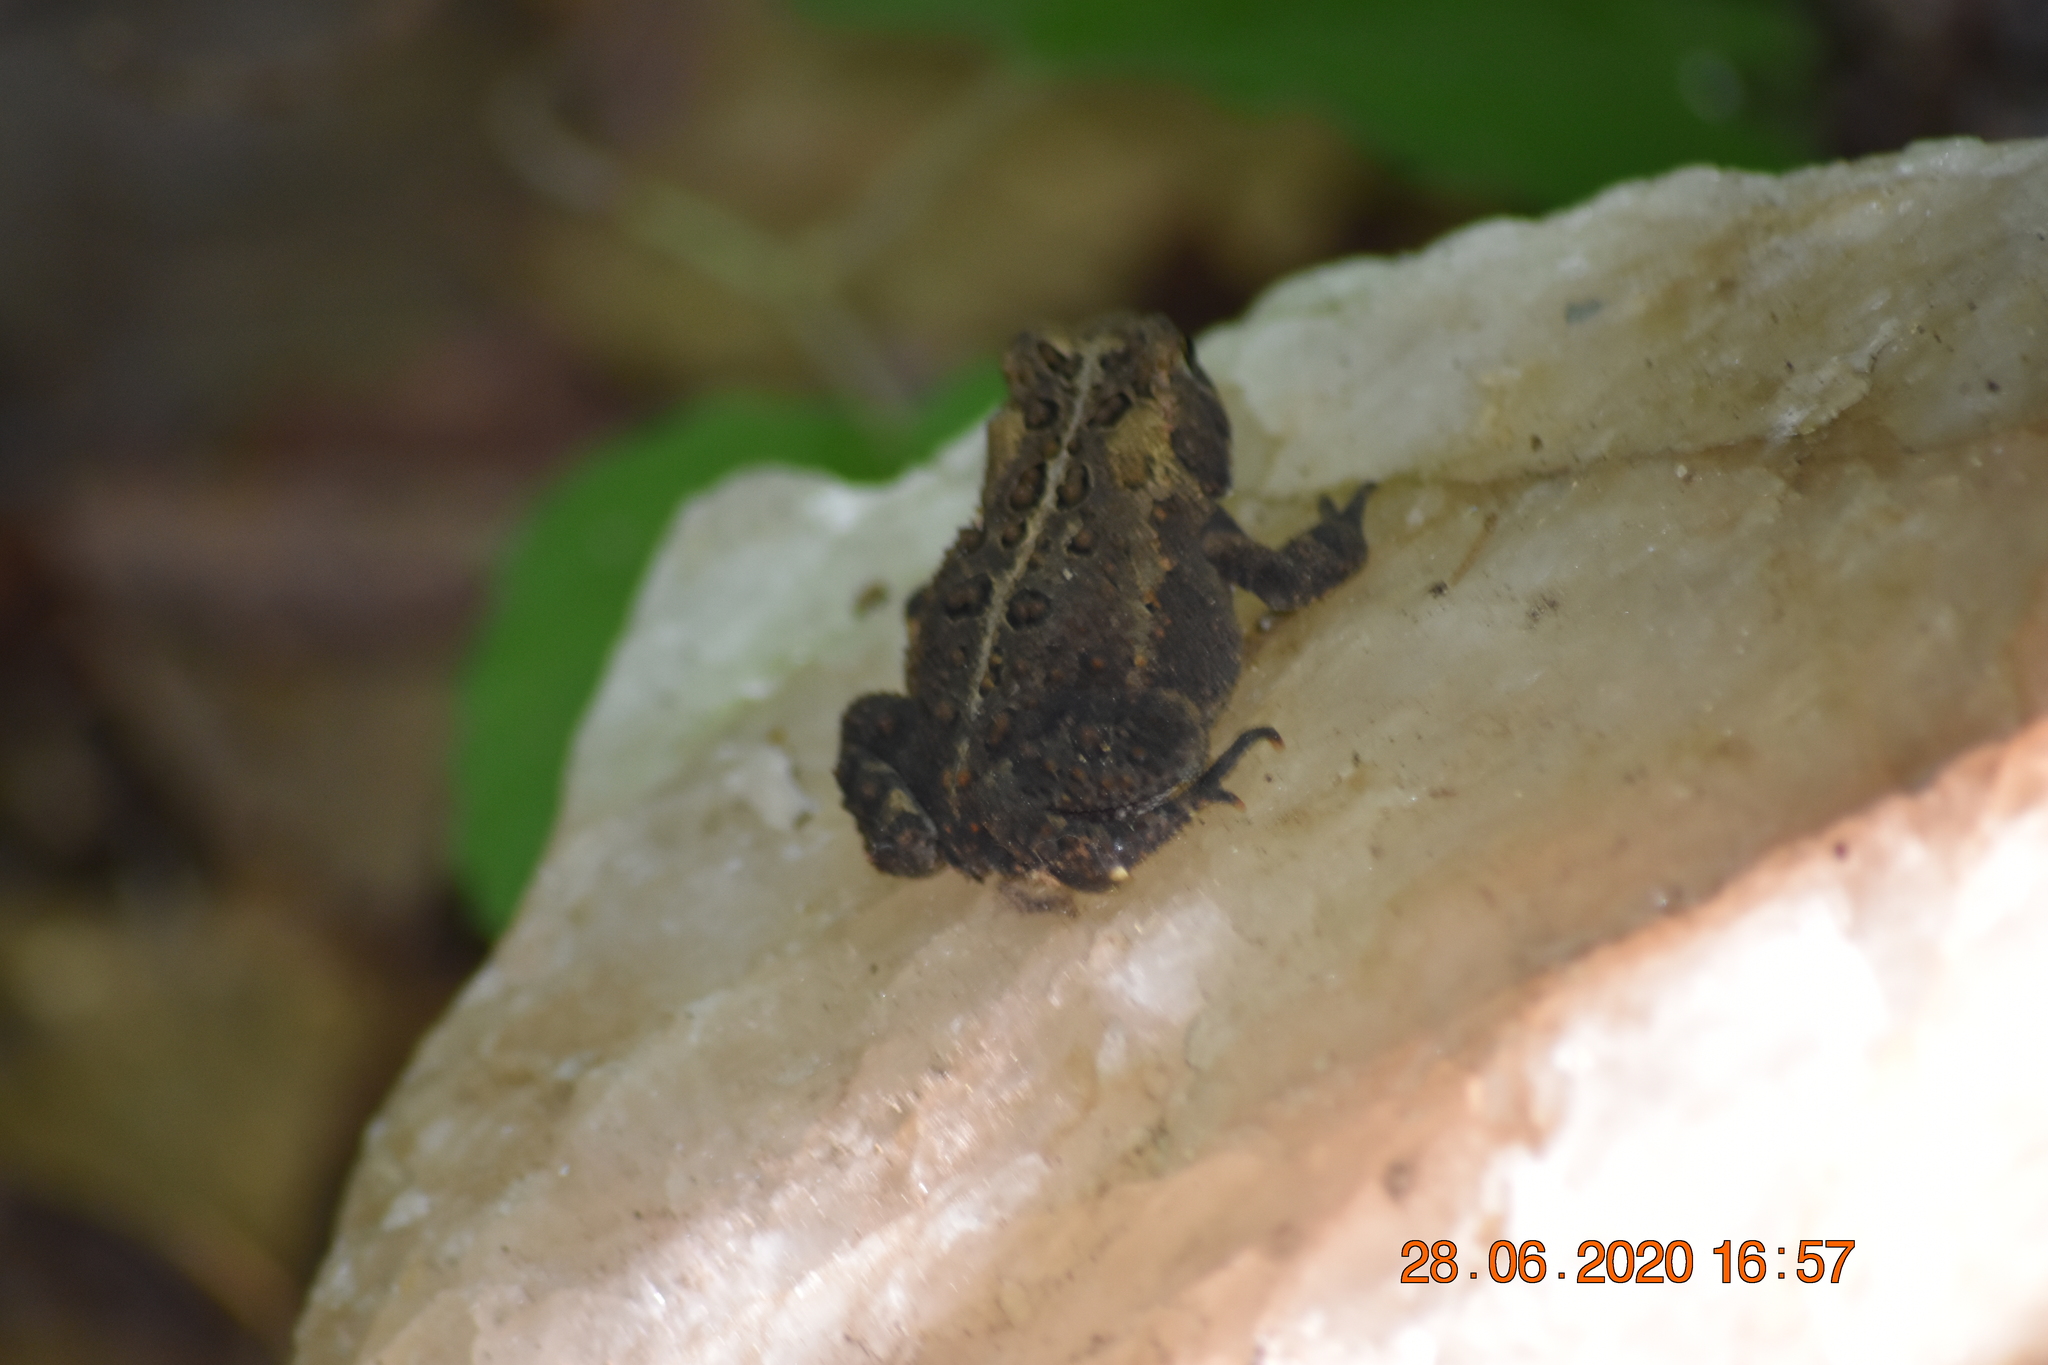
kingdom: Animalia
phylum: Chordata
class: Amphibia
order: Anura
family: Bufonidae
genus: Anaxyrus
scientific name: Anaxyrus americanus
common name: American toad
